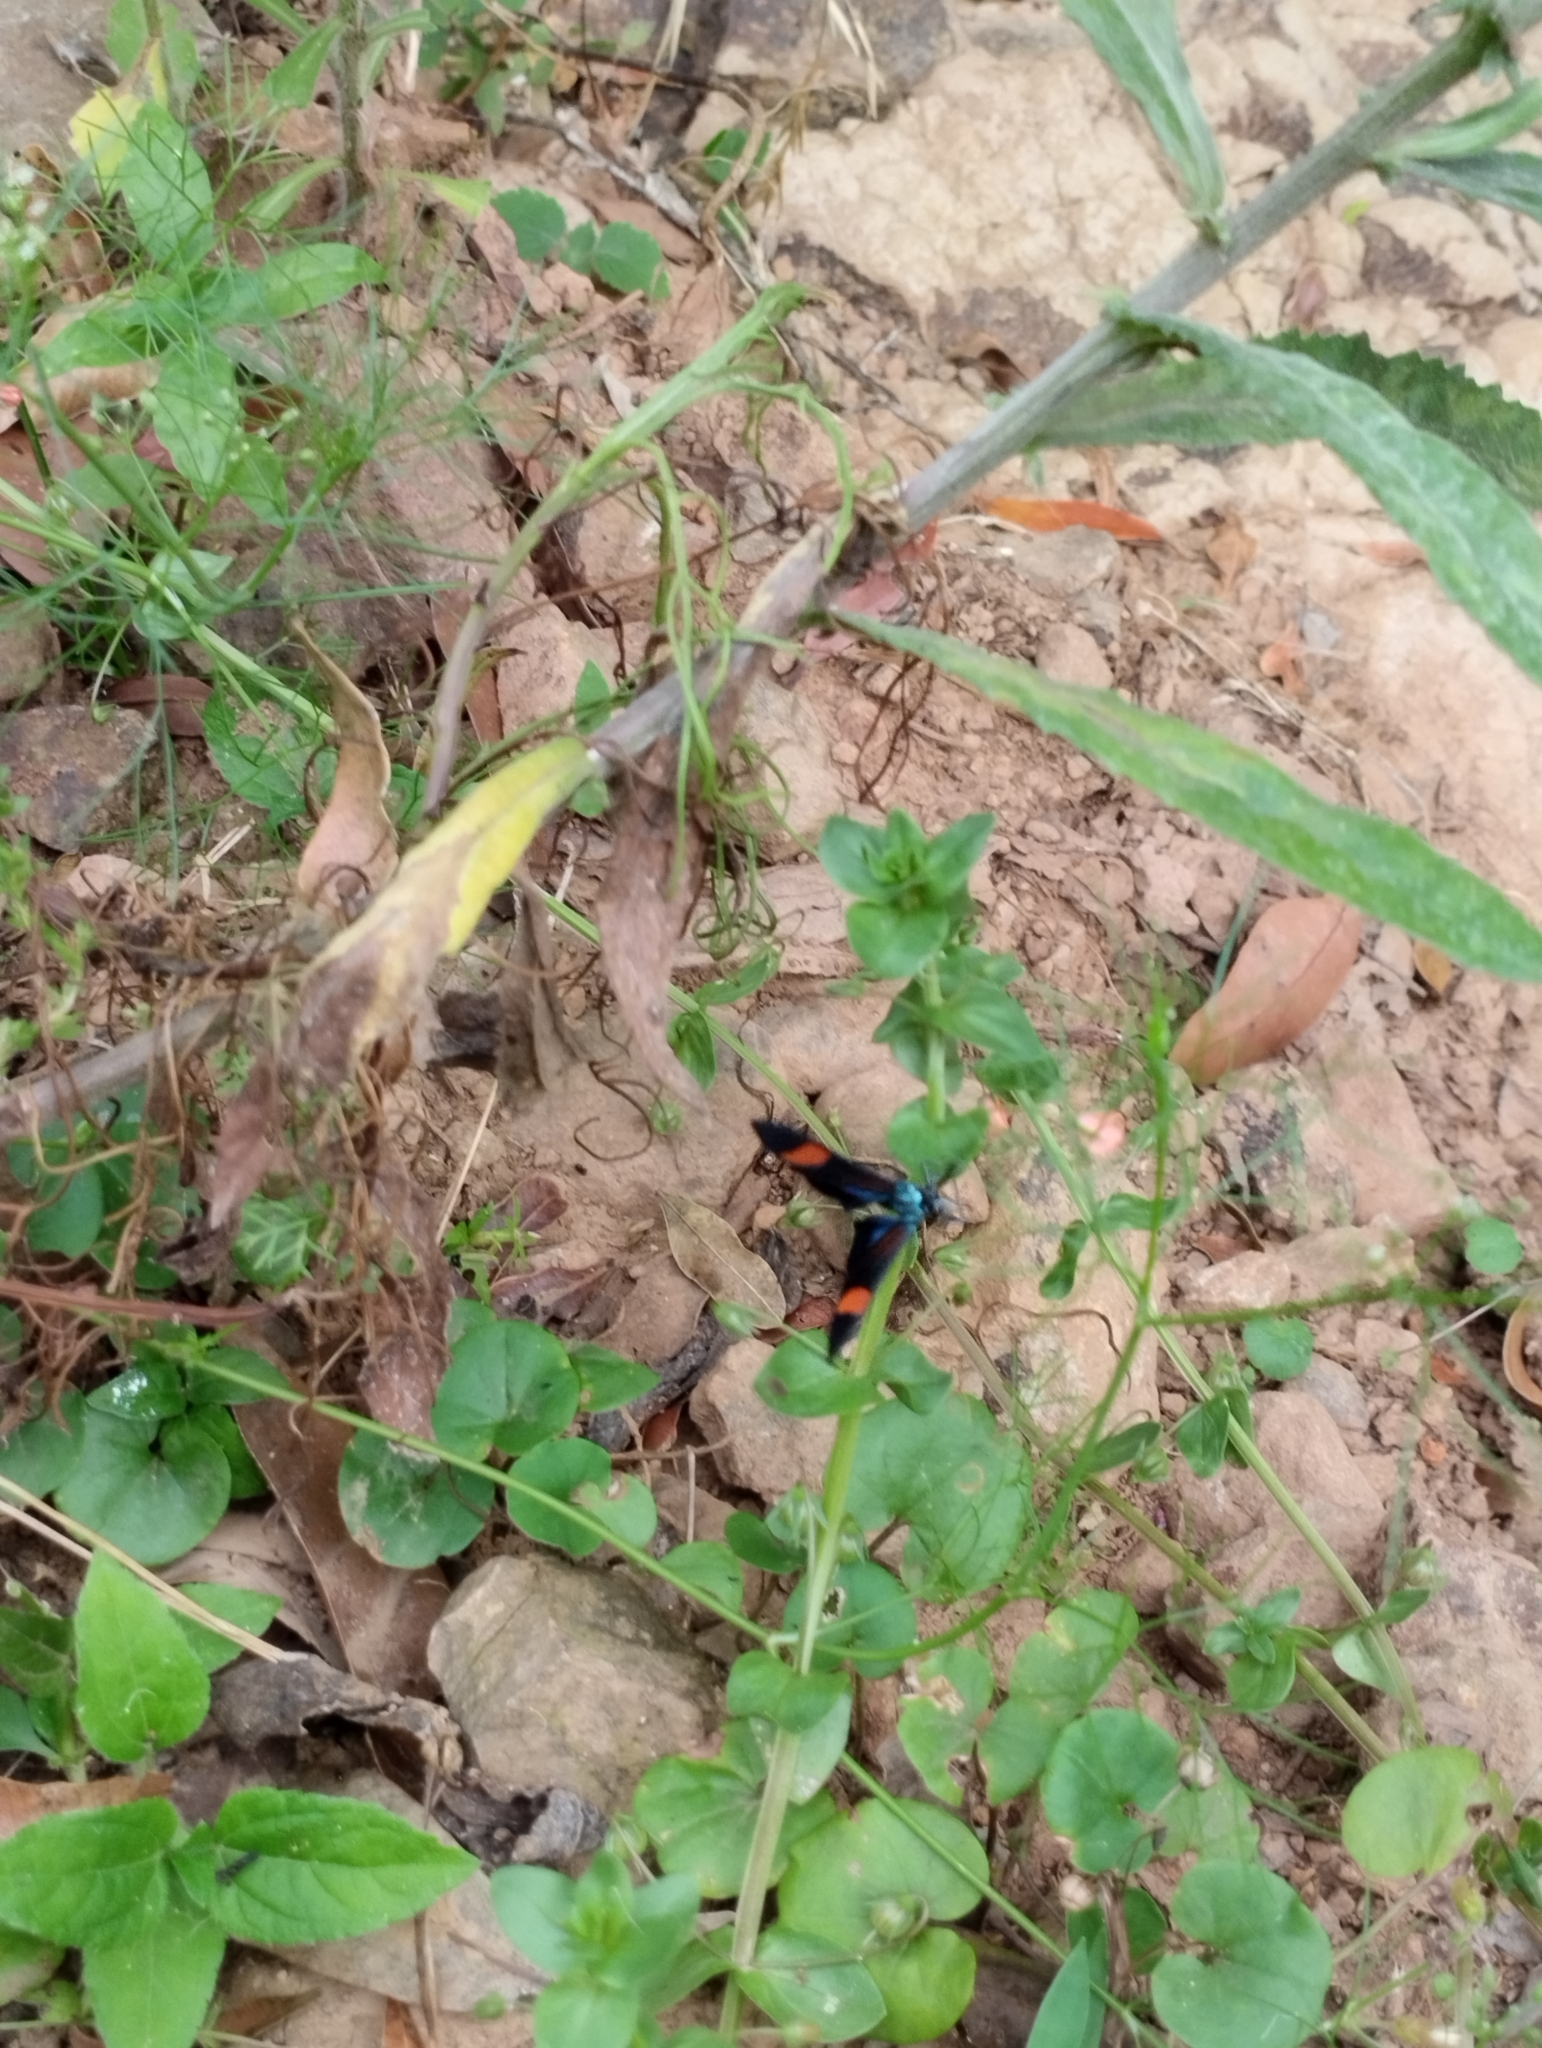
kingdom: Animalia
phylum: Arthropoda
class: Insecta
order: Lepidoptera
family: Erebidae
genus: Cyanopepla
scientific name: Cyanopepla jucunda
